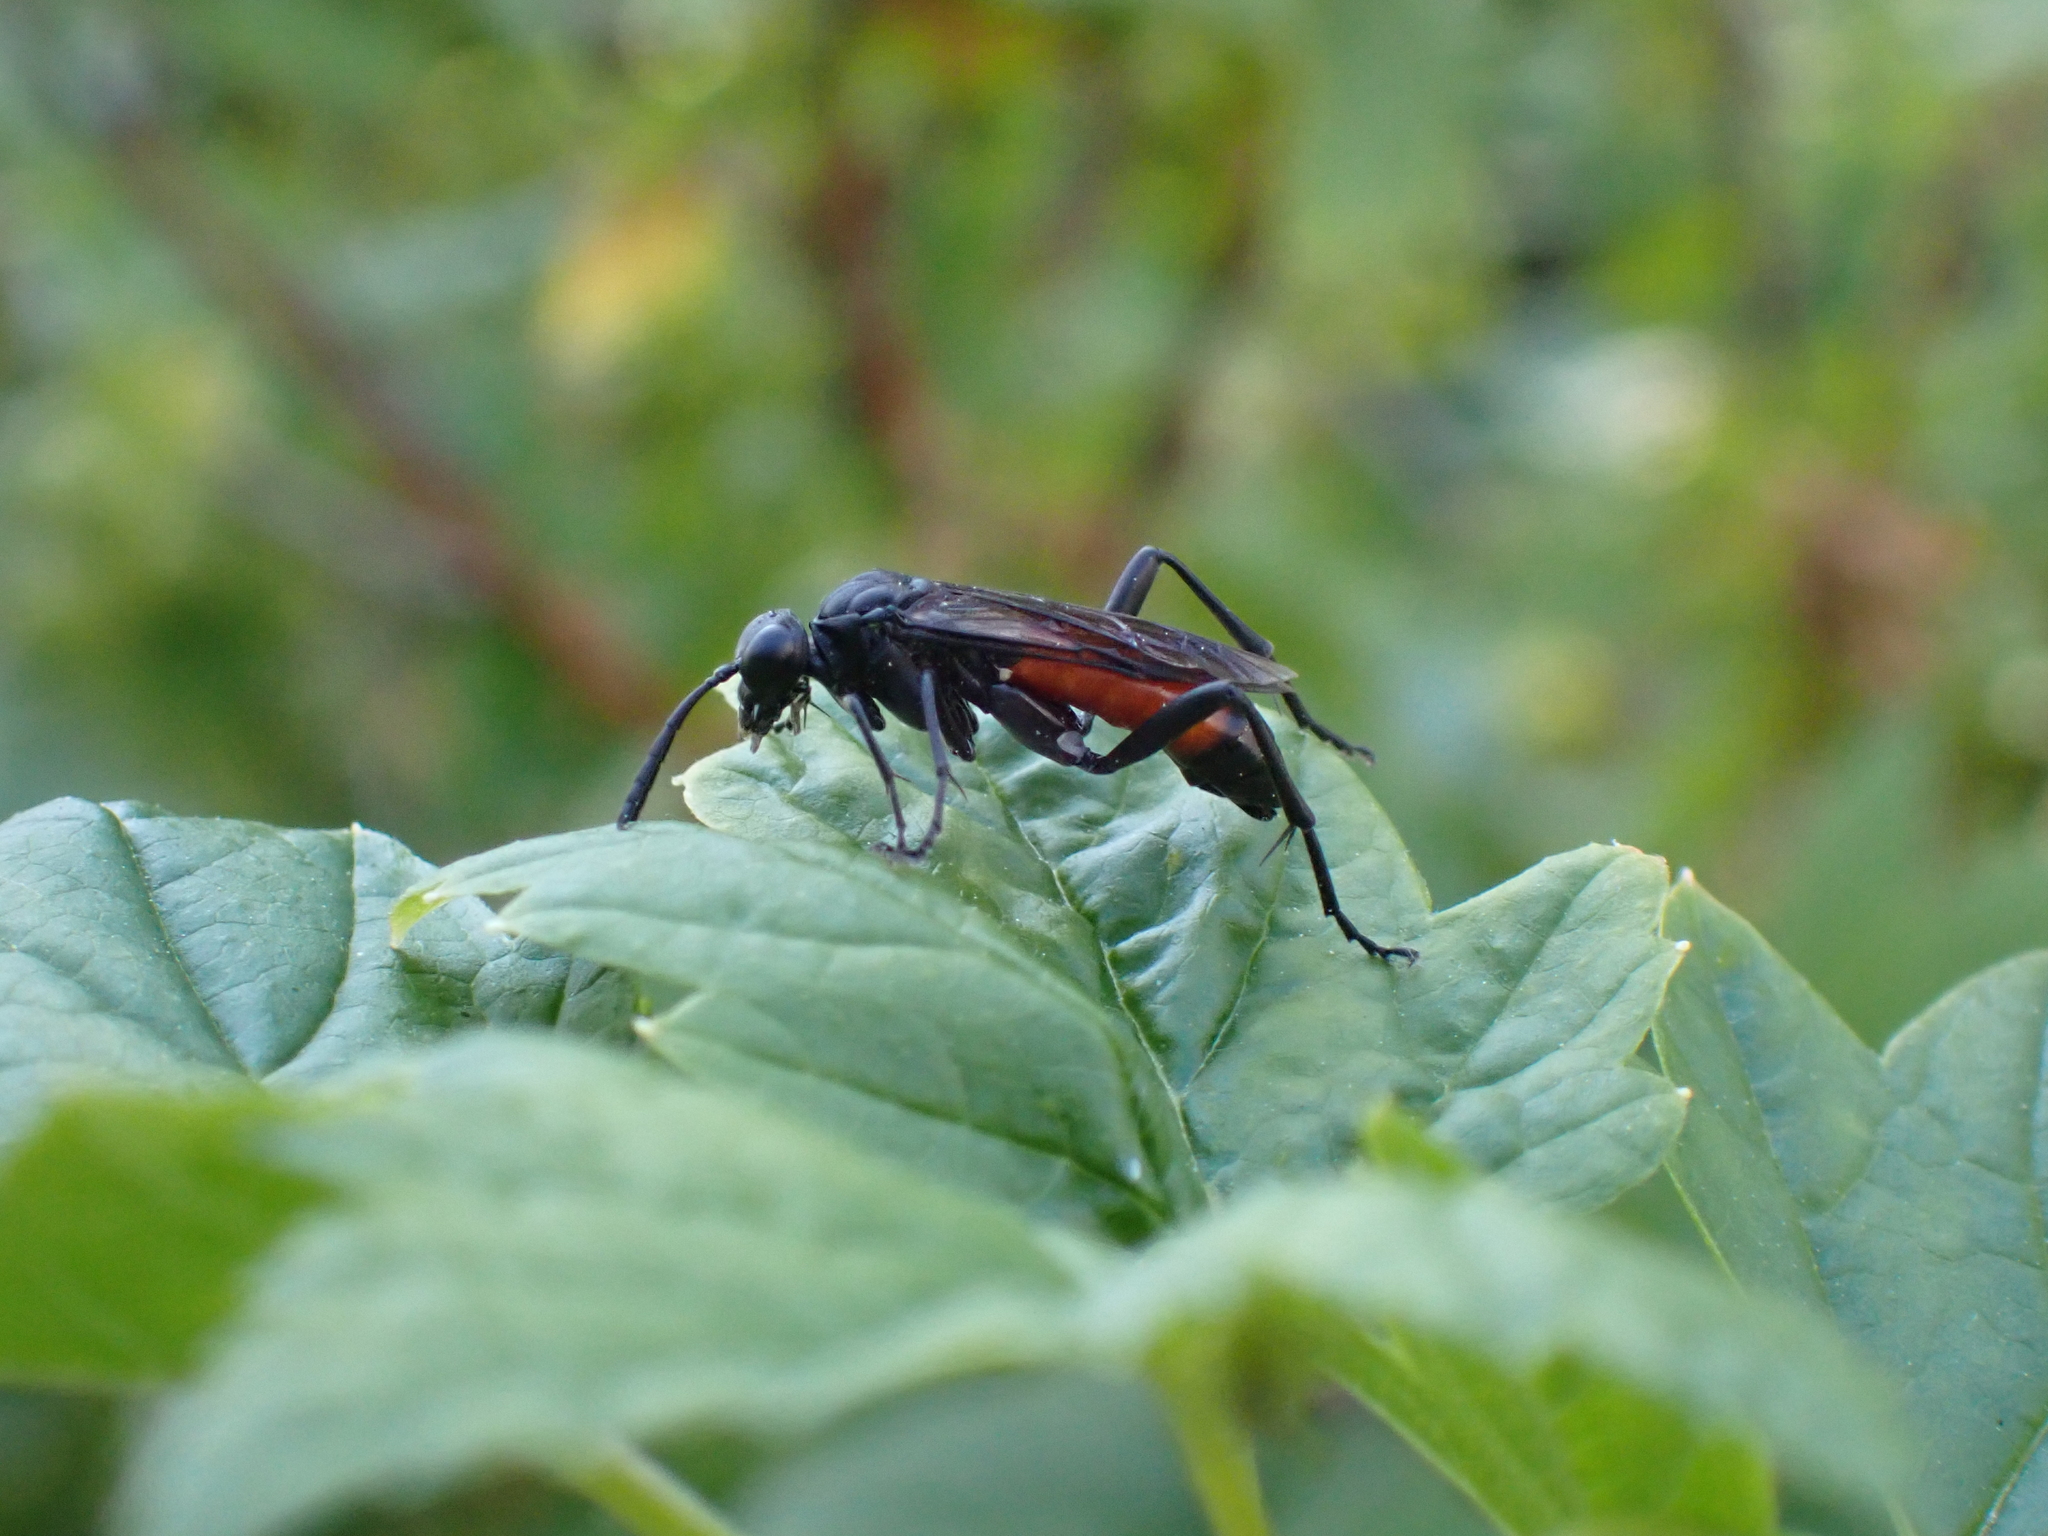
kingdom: Animalia
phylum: Arthropoda
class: Insecta
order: Hymenoptera
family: Tenthredinidae
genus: Macrophya
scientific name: Macrophya annulata
